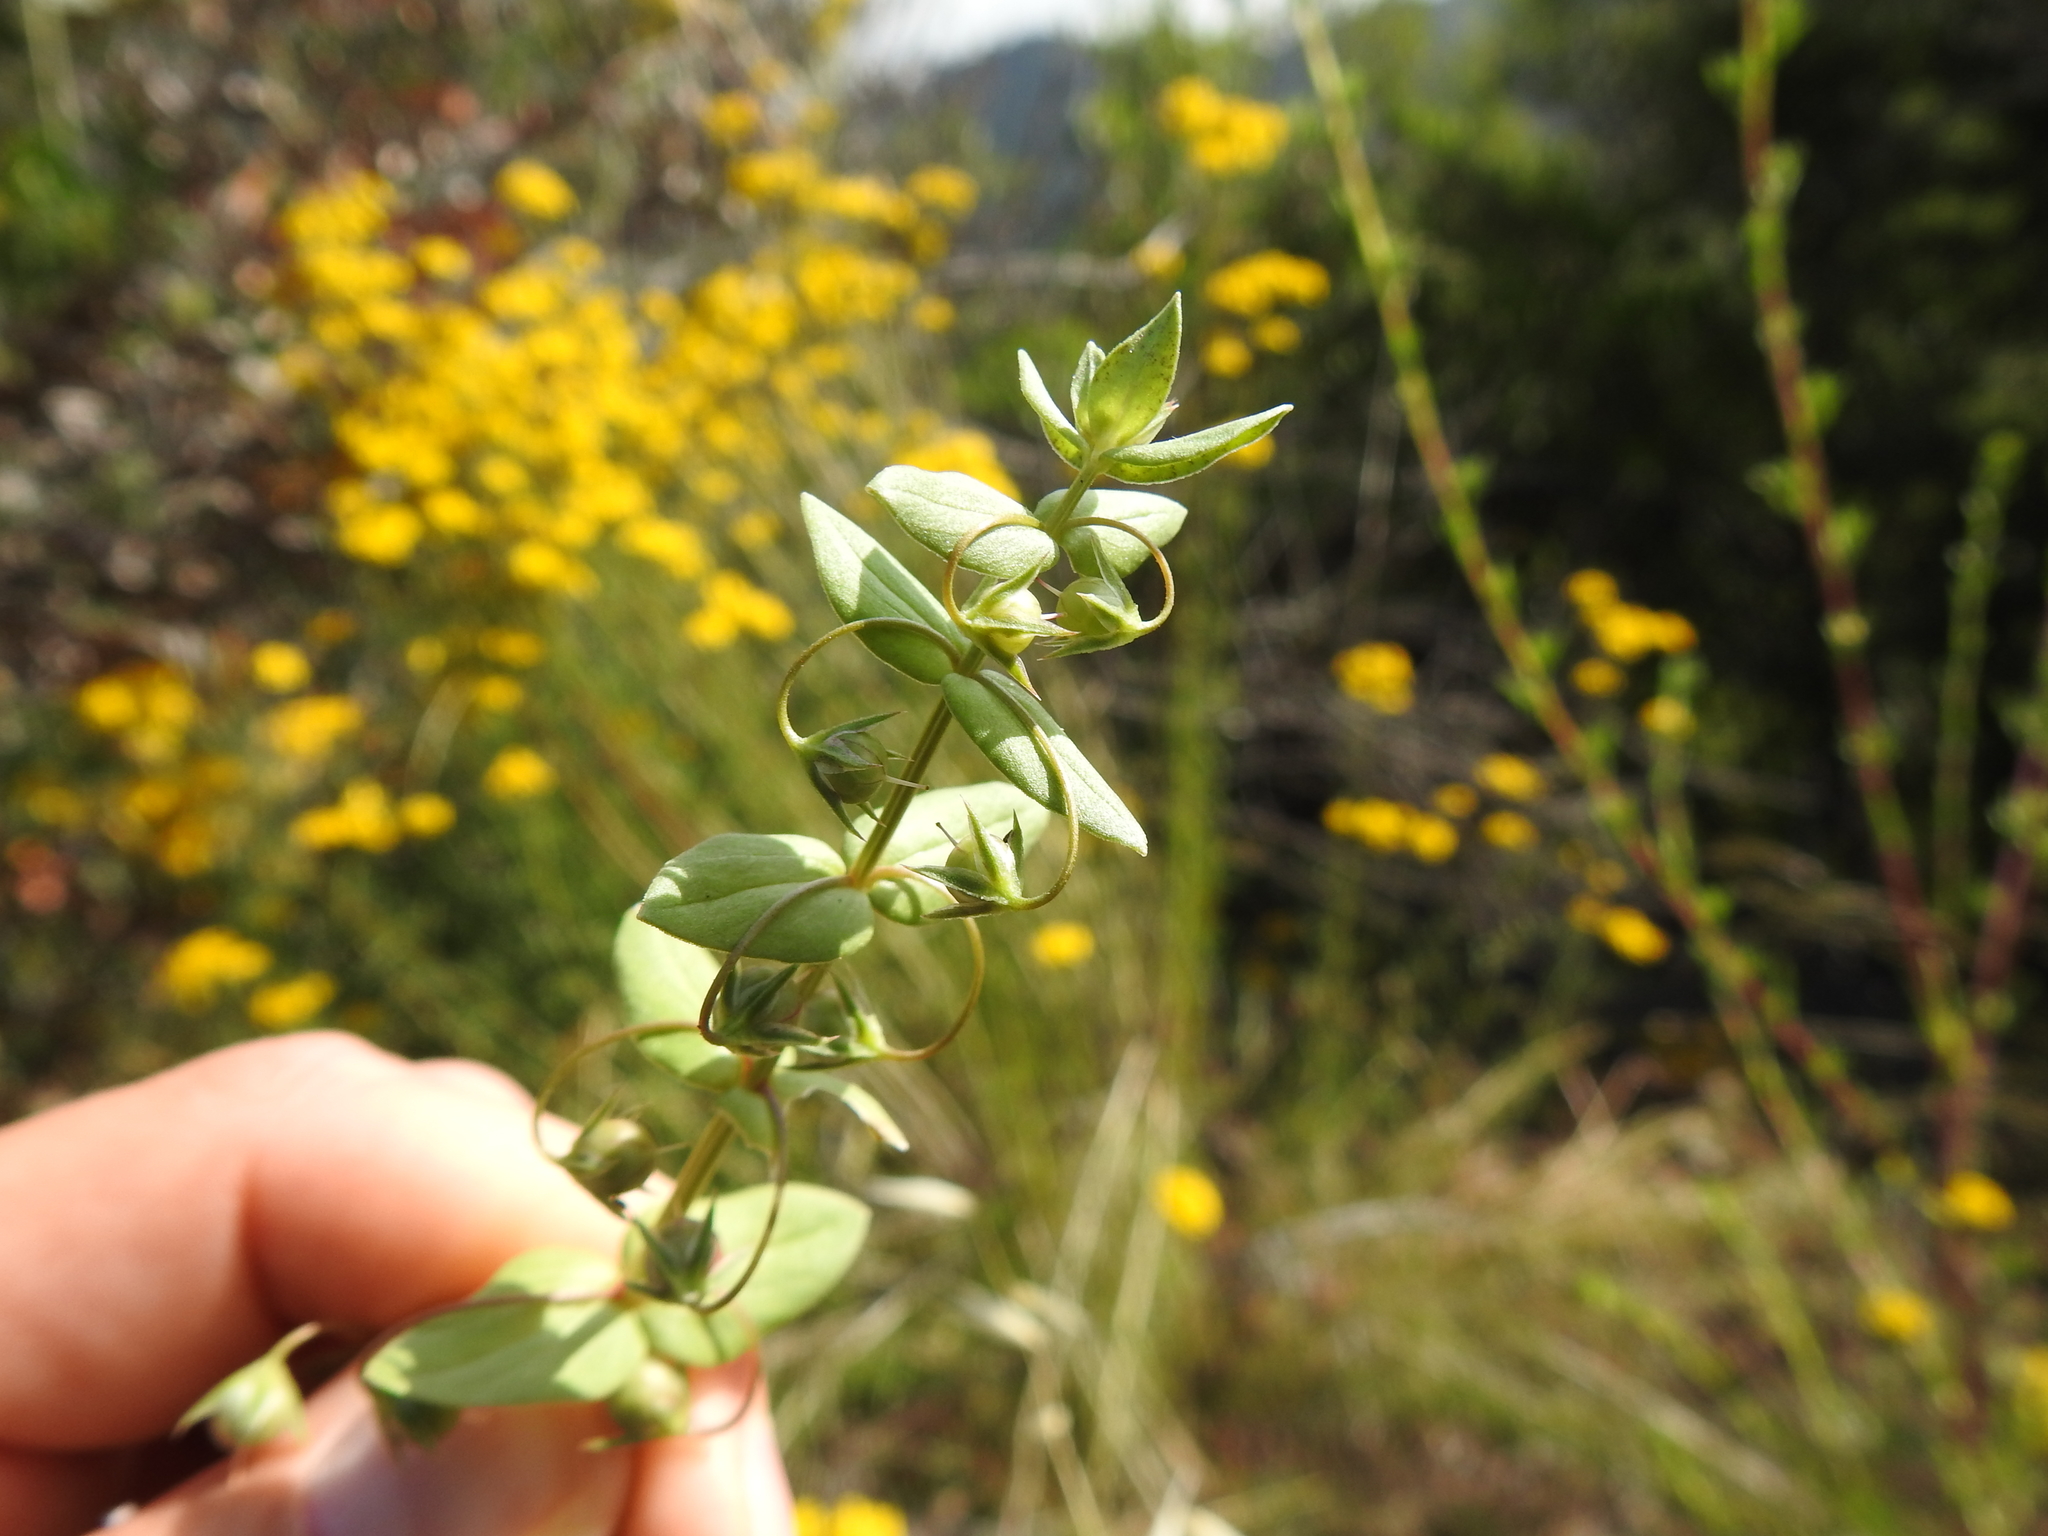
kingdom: Plantae
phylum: Tracheophyta
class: Magnoliopsida
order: Ericales
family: Primulaceae
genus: Lysimachia
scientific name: Lysimachia arvensis
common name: Scarlet pimpernel
